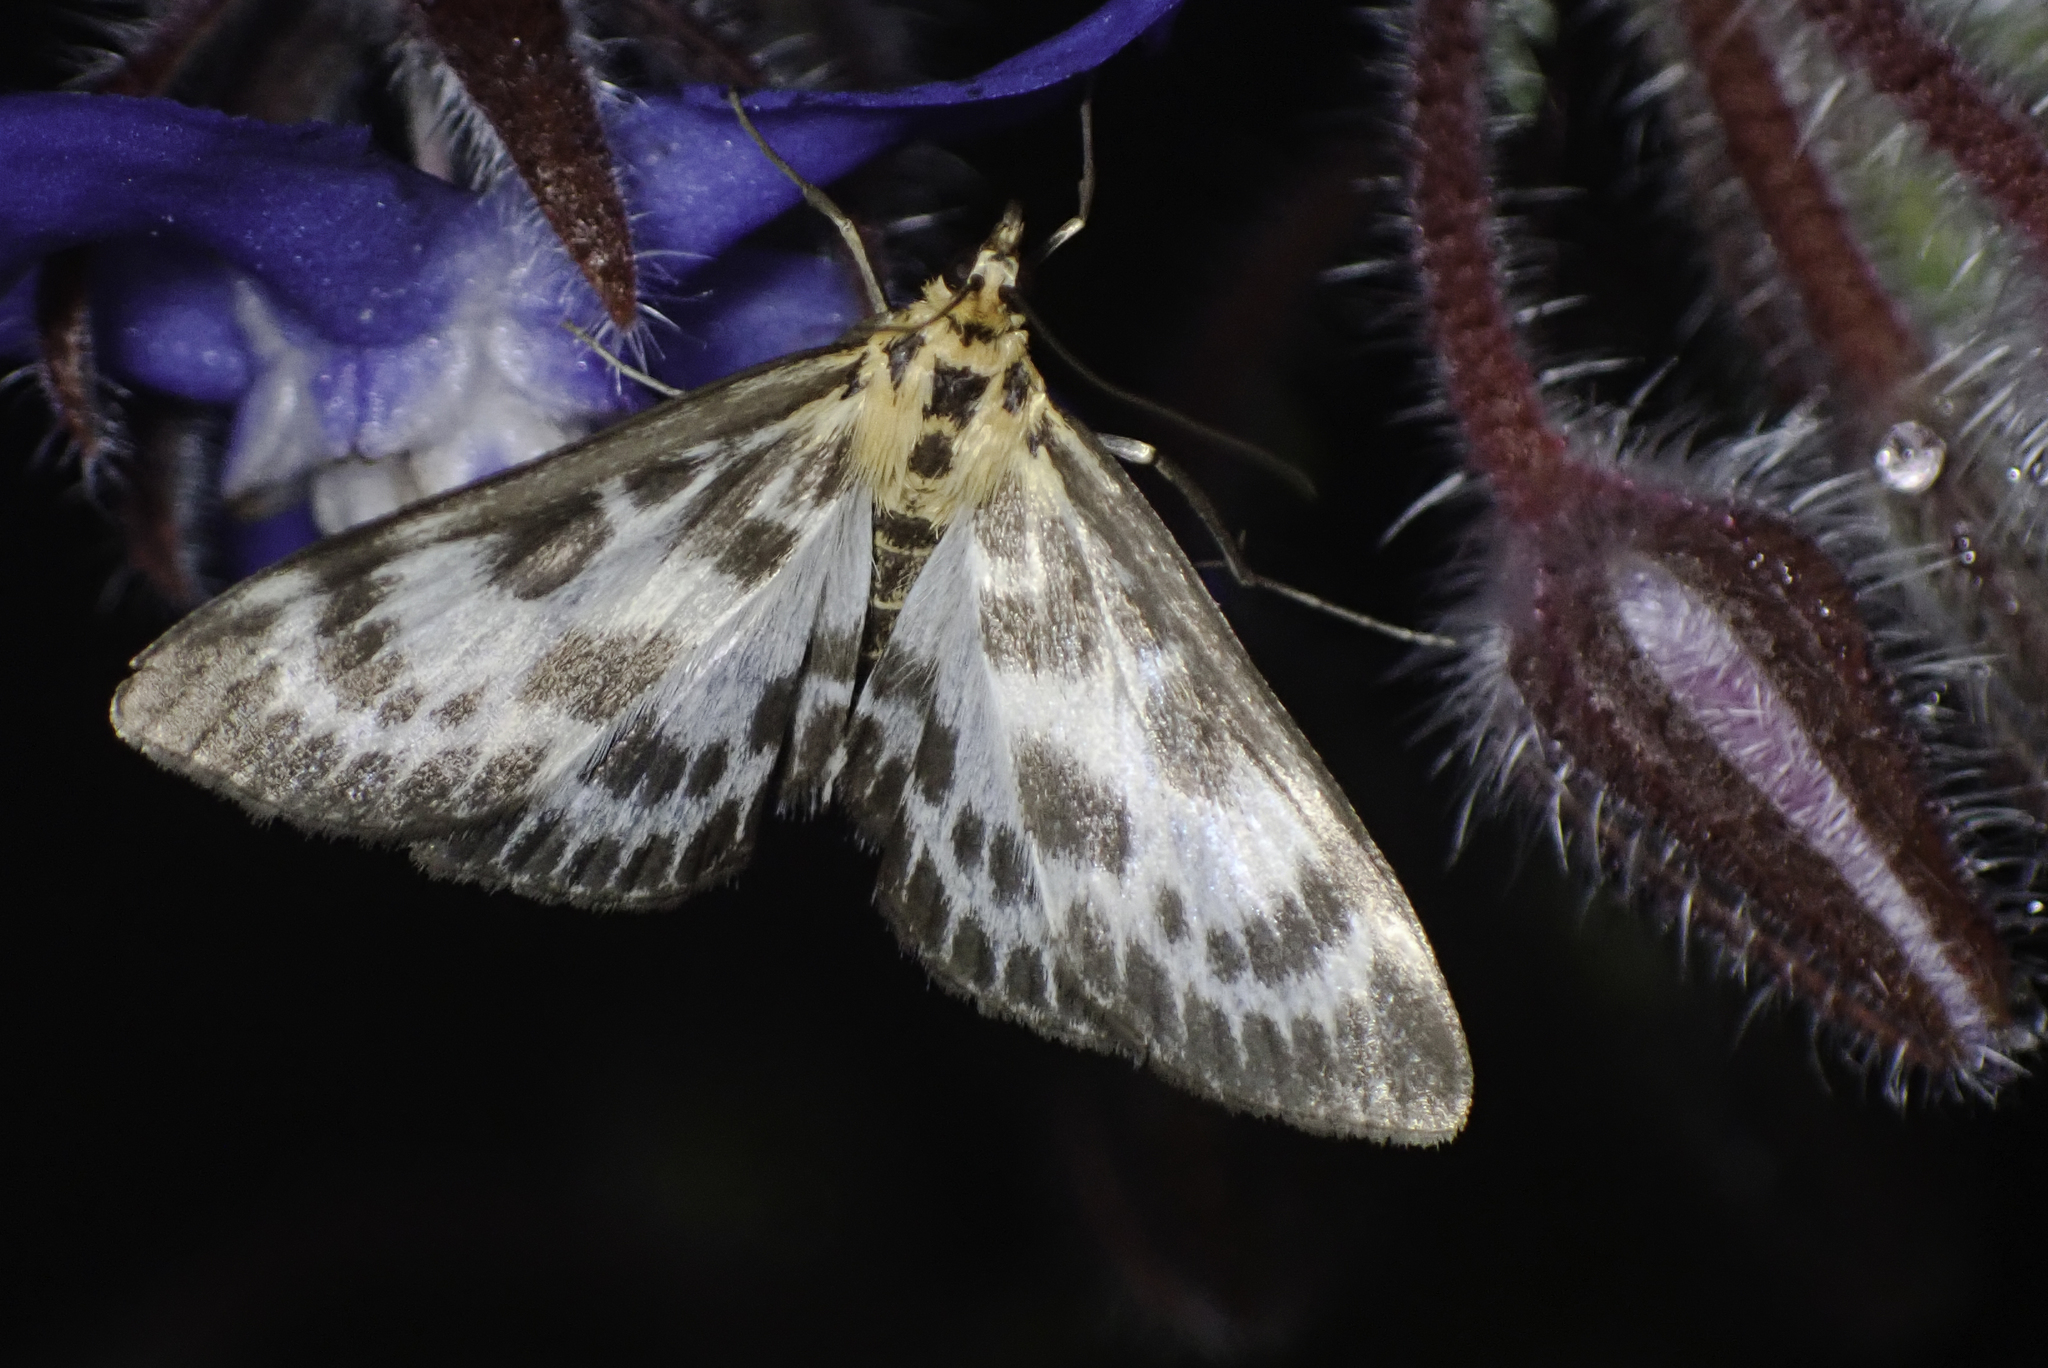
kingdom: Animalia
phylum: Arthropoda
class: Insecta
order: Lepidoptera
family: Crambidae
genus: Anania
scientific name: Anania hortulata
